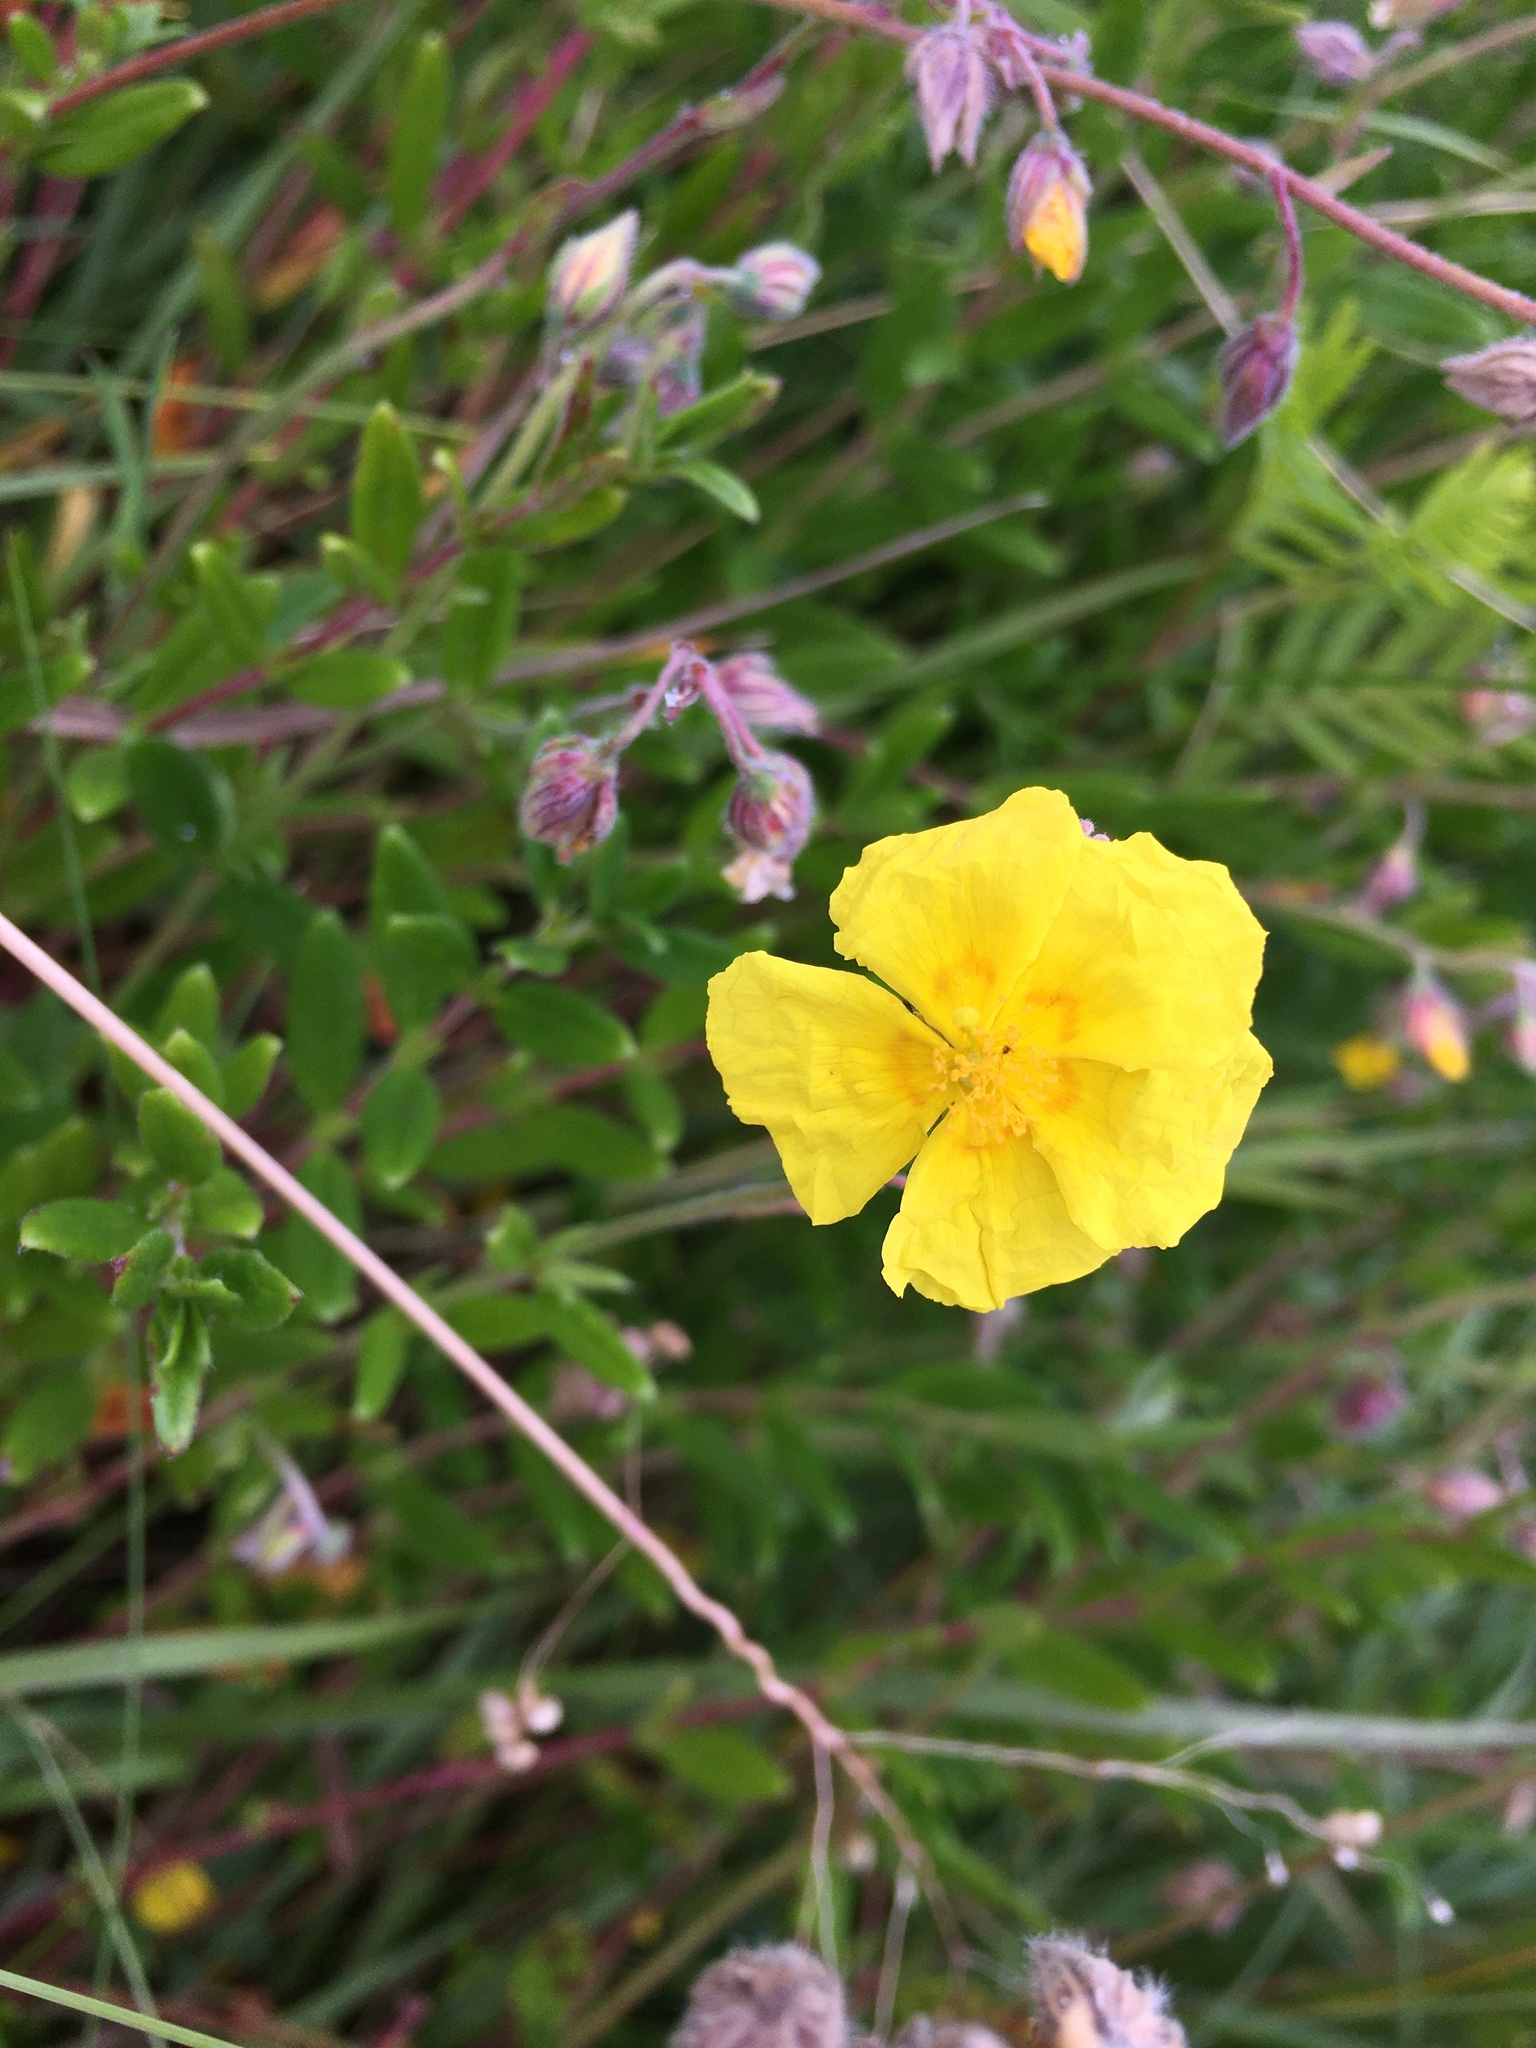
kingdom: Plantae
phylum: Tracheophyta
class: Magnoliopsida
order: Malvales
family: Cistaceae
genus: Helianthemum
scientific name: Helianthemum nummularium
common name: Common rock-rose
